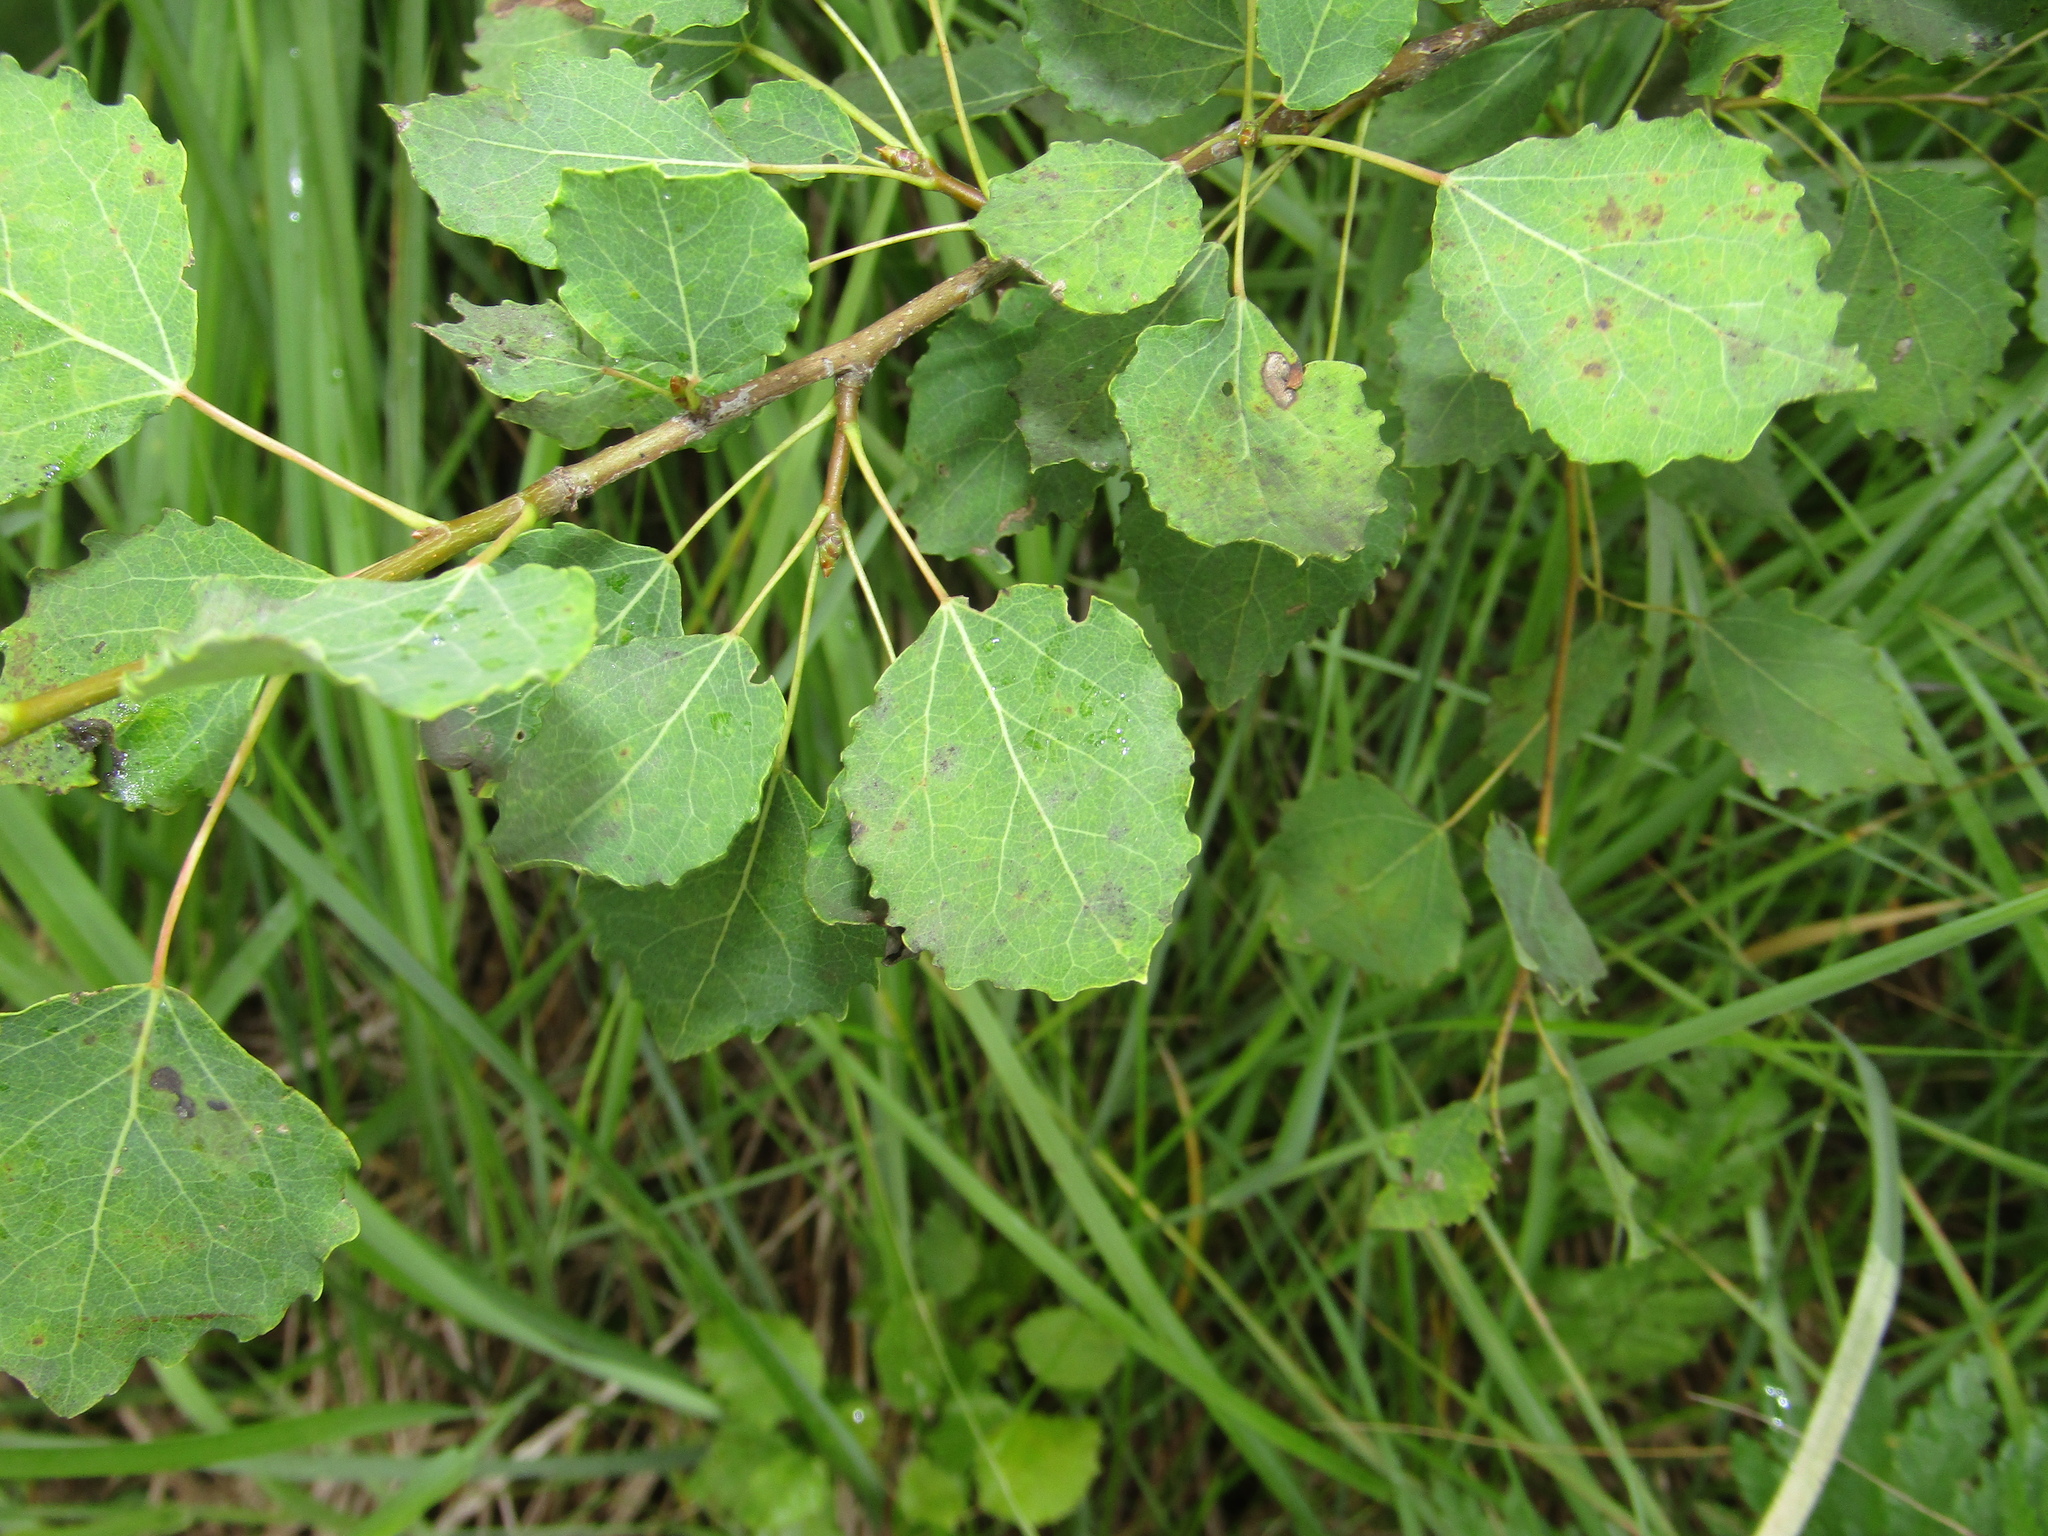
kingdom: Plantae
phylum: Tracheophyta
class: Magnoliopsida
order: Malpighiales
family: Salicaceae
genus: Populus
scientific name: Populus tremula
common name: European aspen
